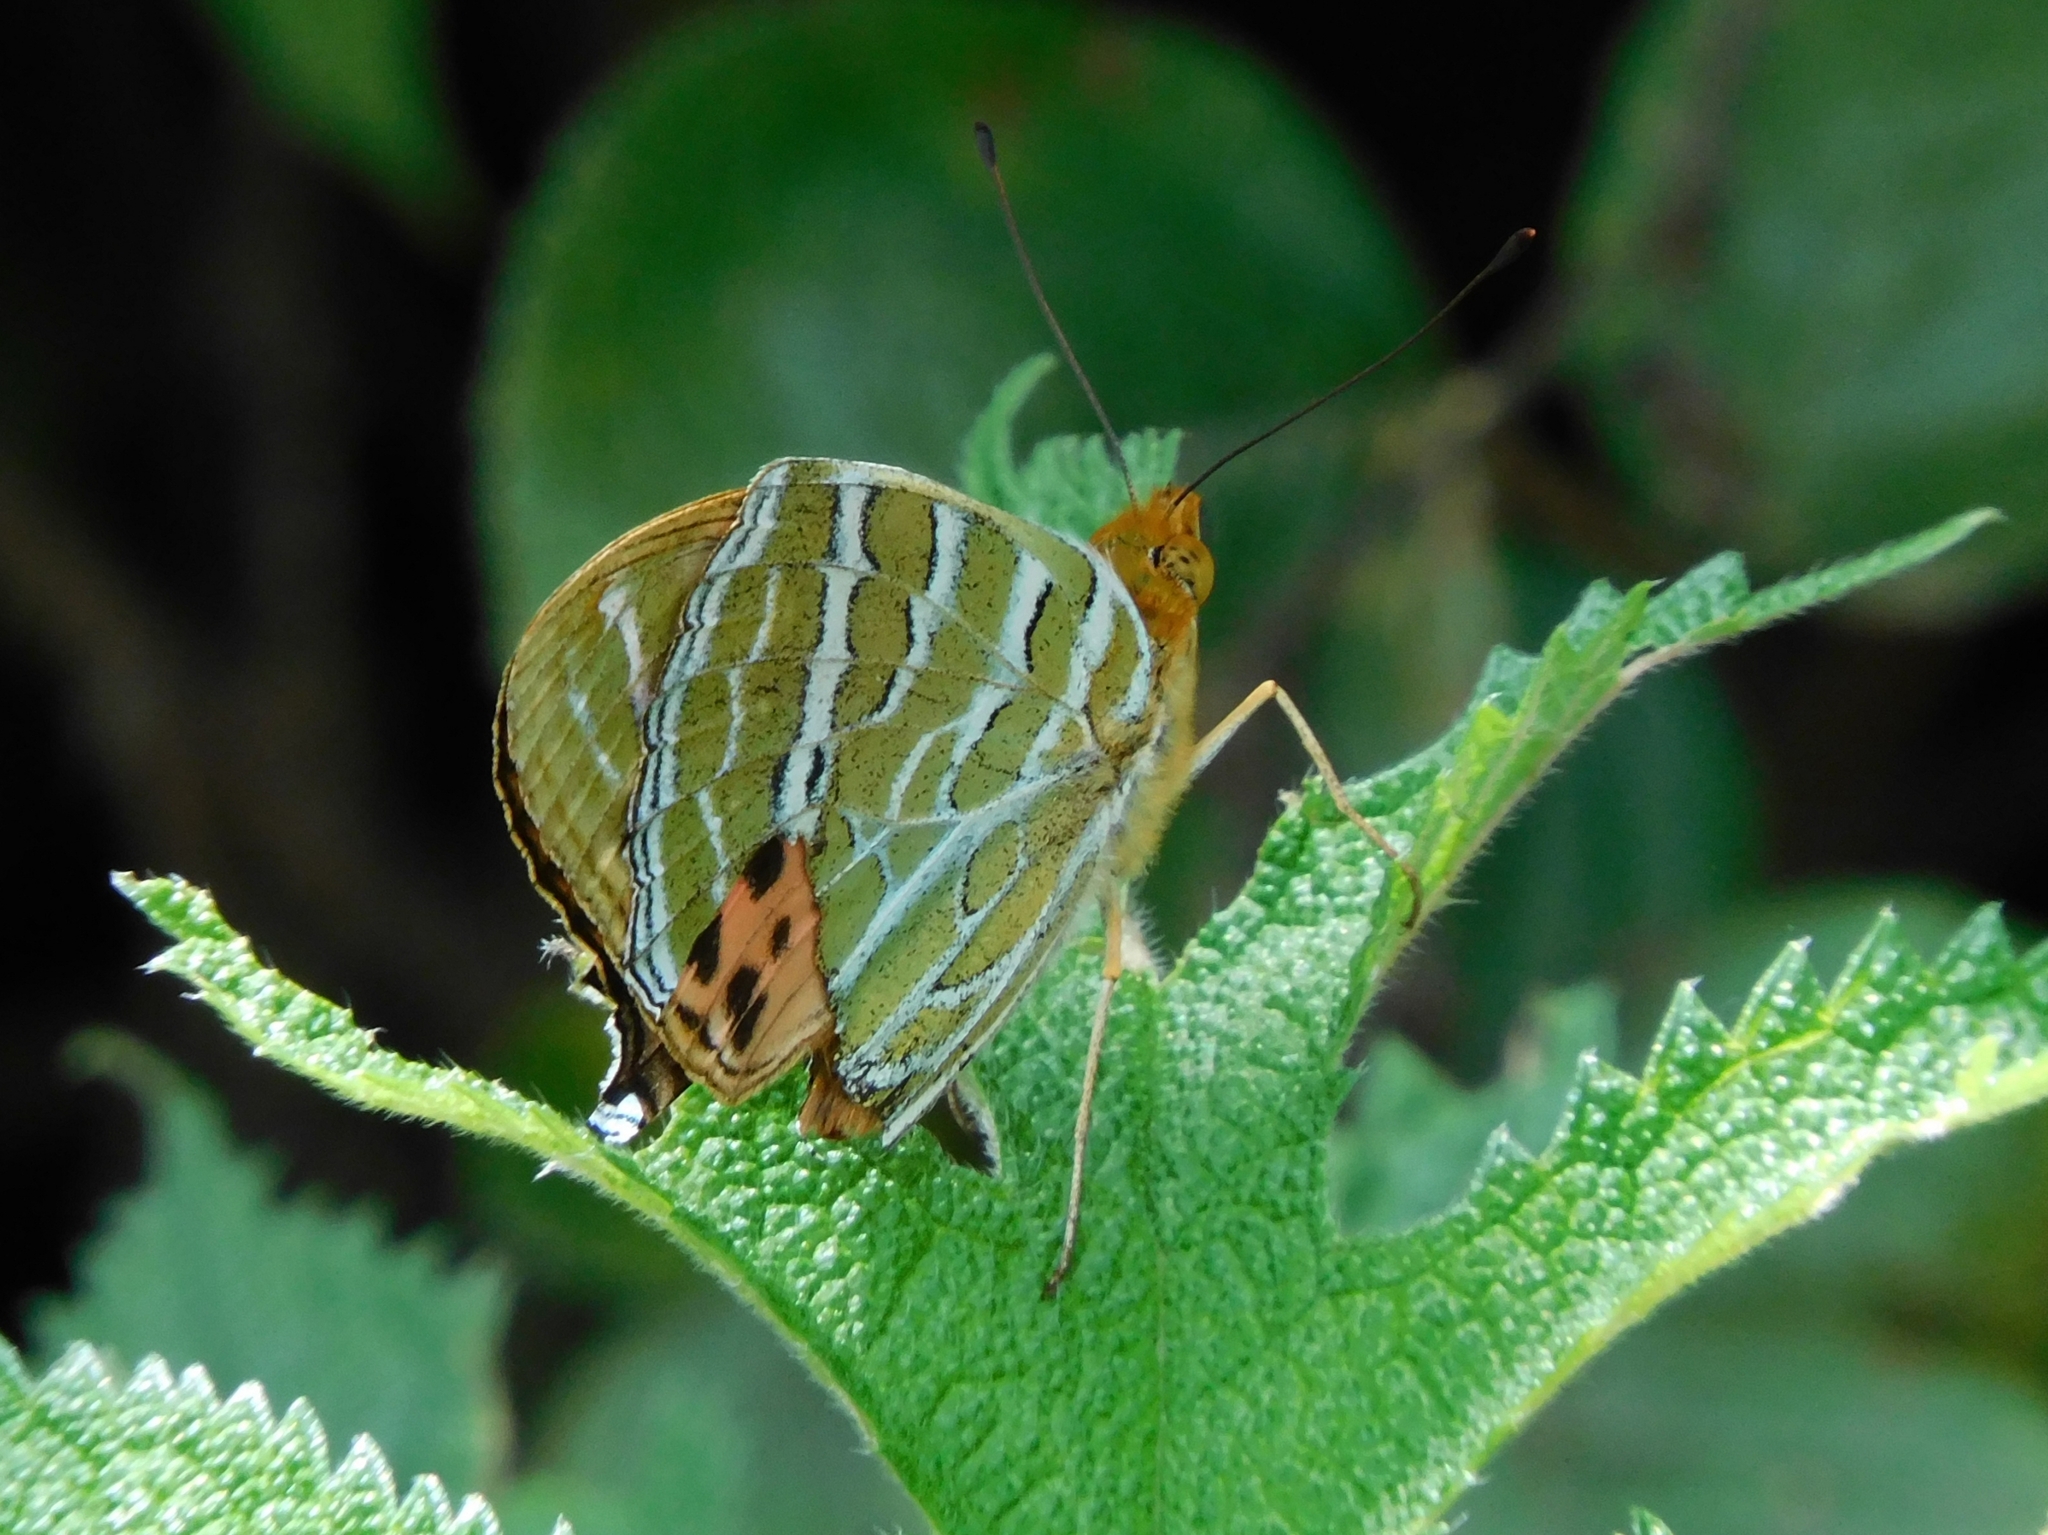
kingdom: Animalia
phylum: Arthropoda
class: Insecta
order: Lepidoptera
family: Nymphalidae
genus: Childrena
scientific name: Childrena childreni
